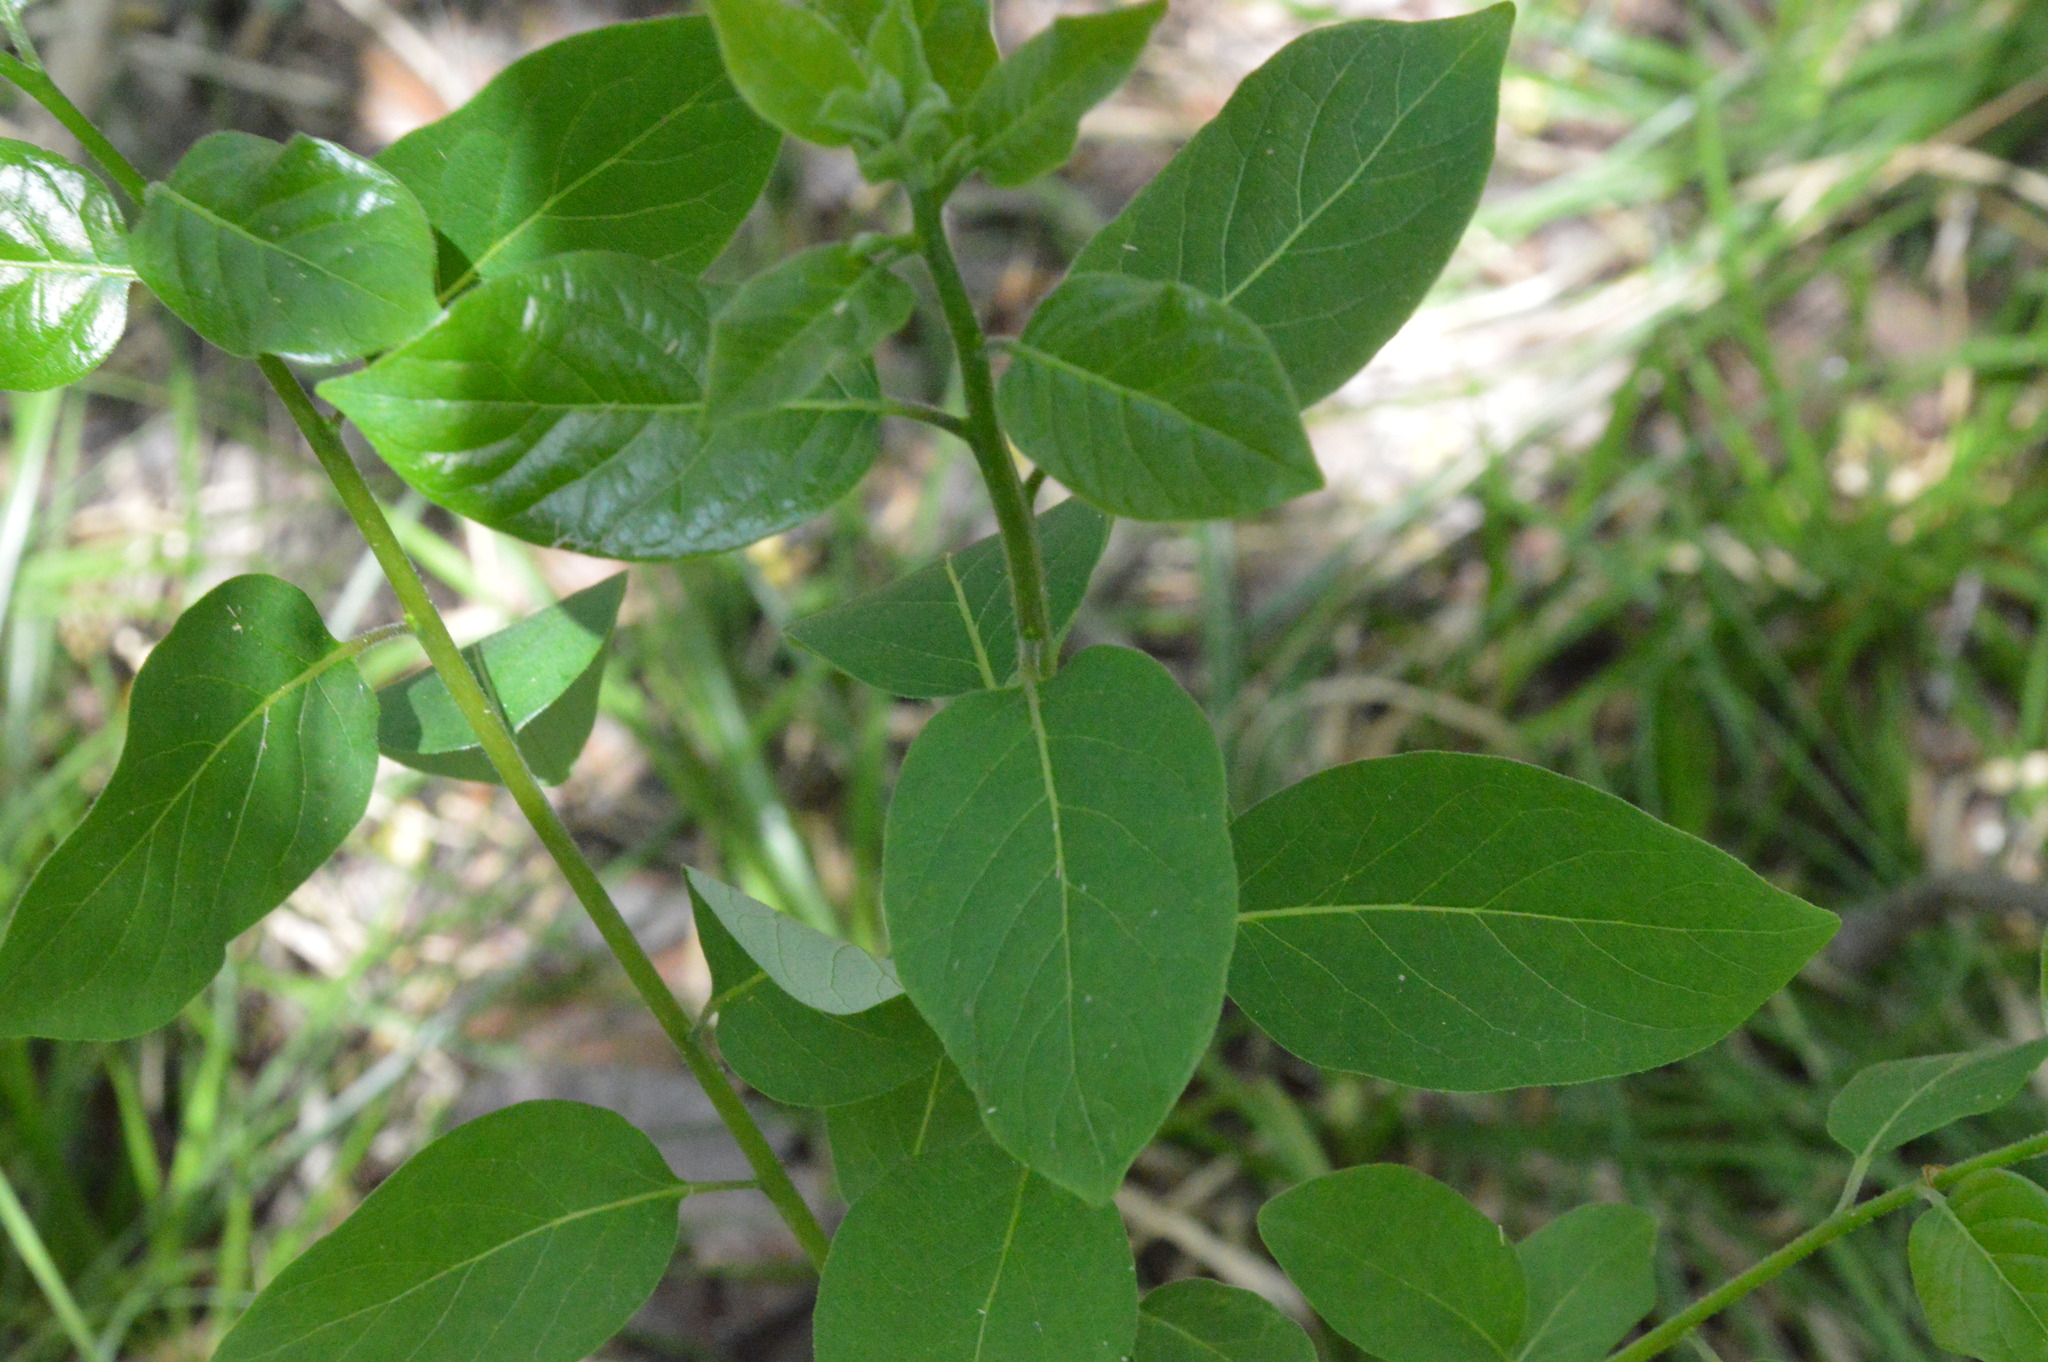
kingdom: Plantae
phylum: Tracheophyta
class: Magnoliopsida
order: Ericales
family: Ebenaceae
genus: Diospyros
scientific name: Diospyros virginiana
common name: Persimmon
